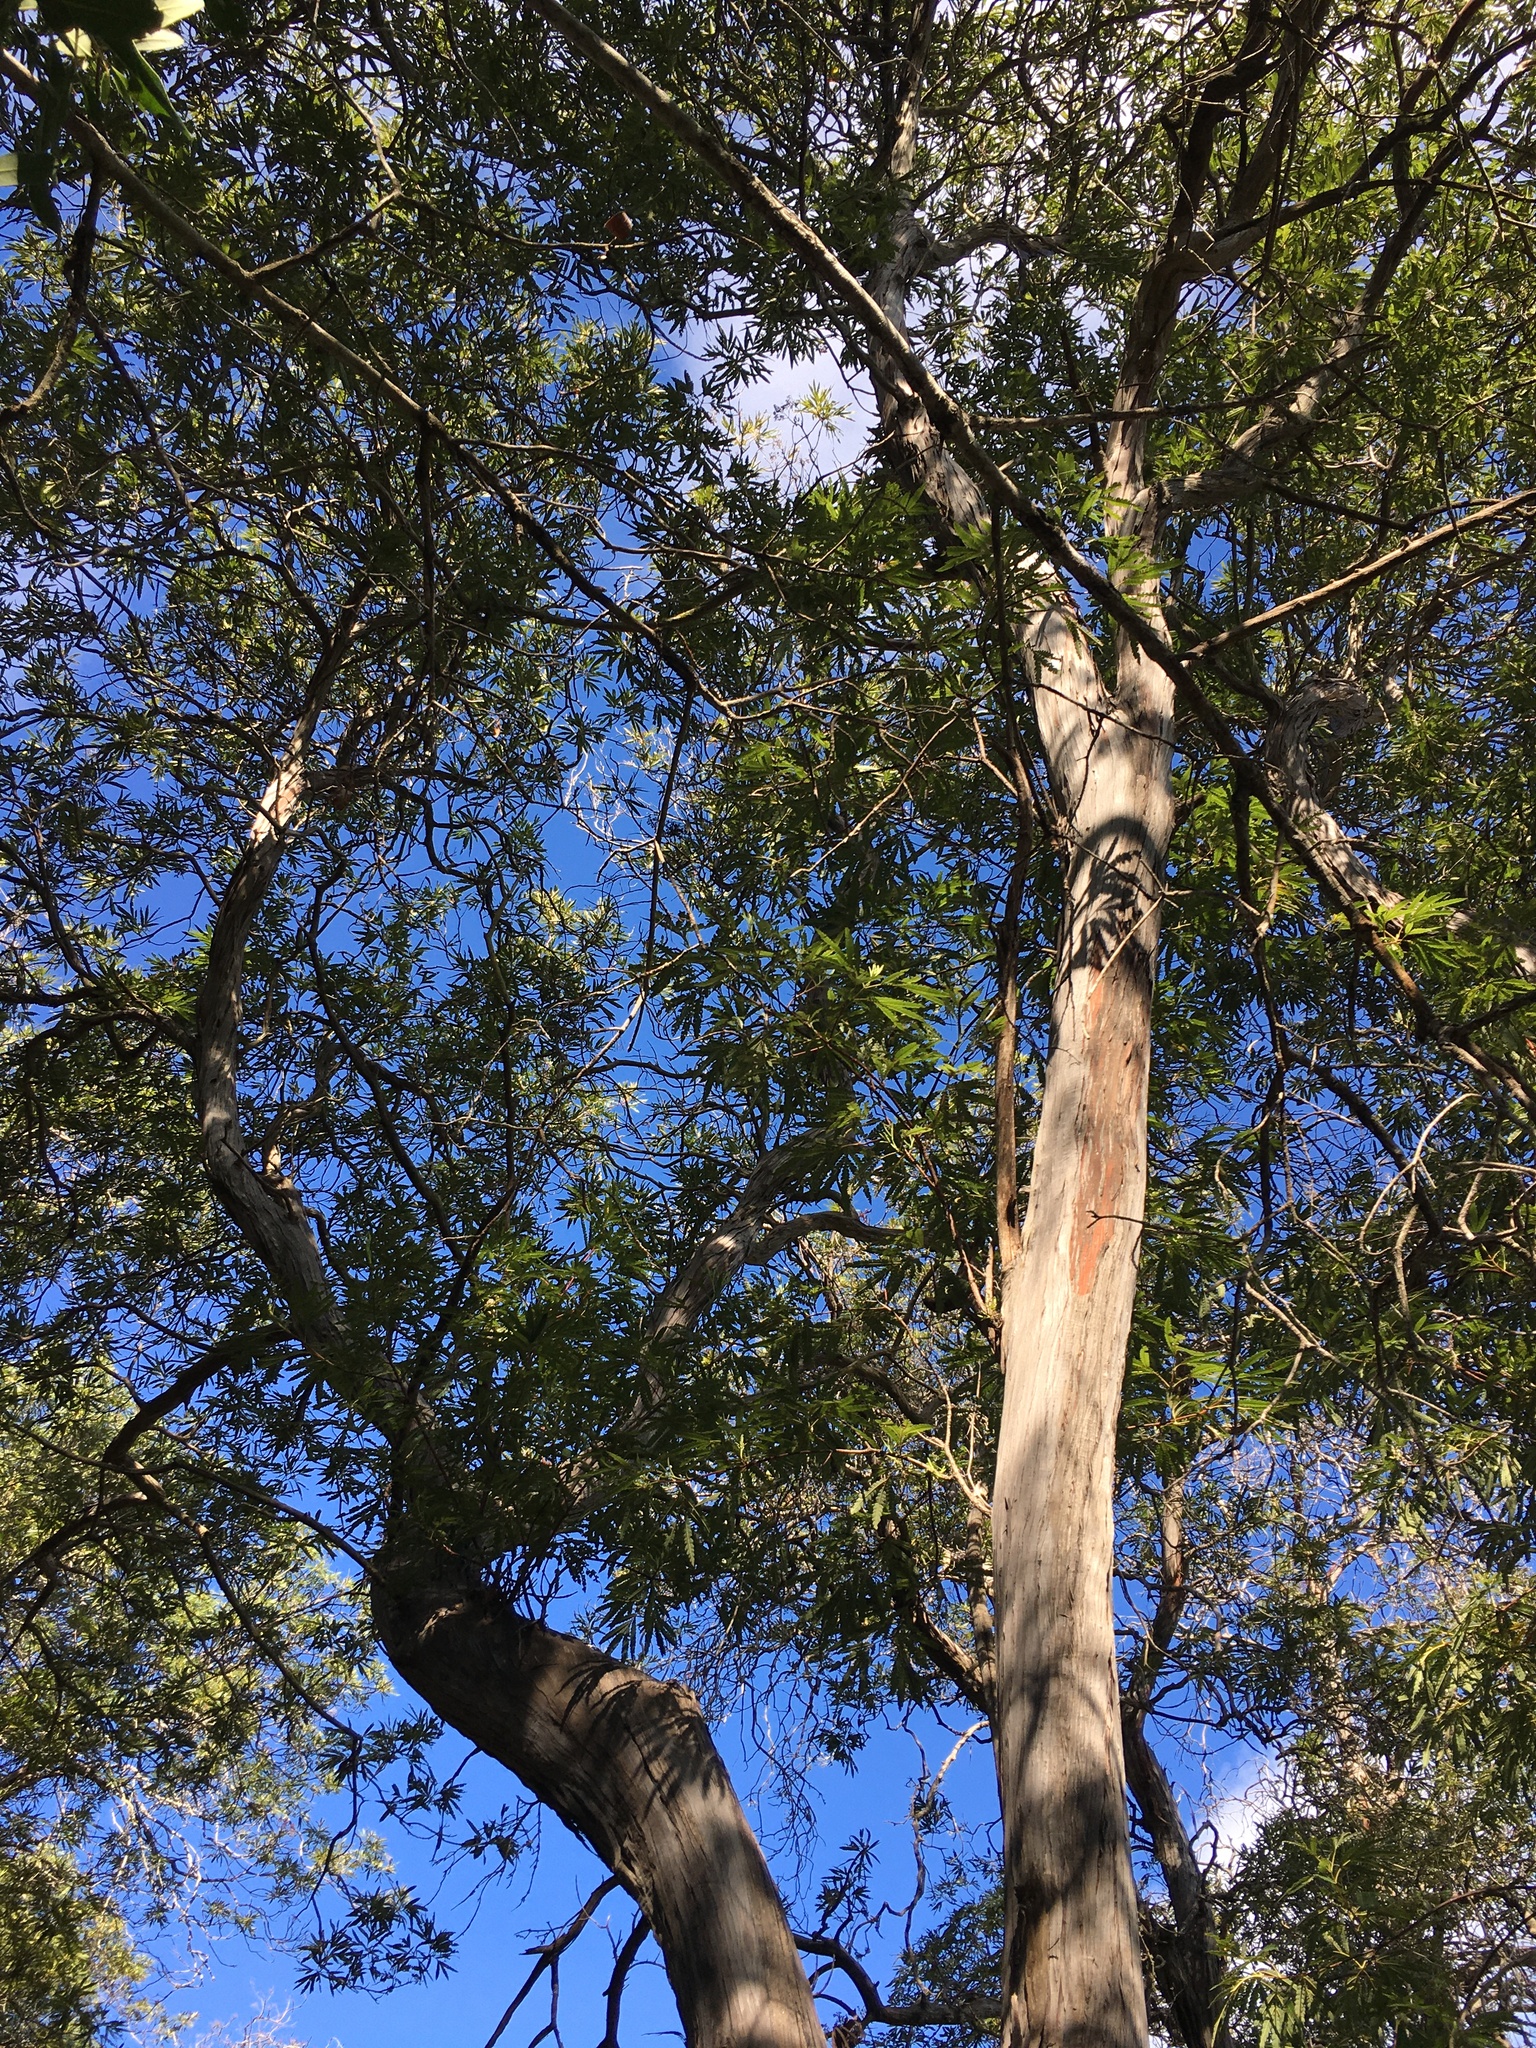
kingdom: Plantae
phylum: Tracheophyta
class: Magnoliopsida
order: Rosales
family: Rosaceae
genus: Lyonothamnus
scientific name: Lyonothamnus floribundus
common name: Catalina ironwood
